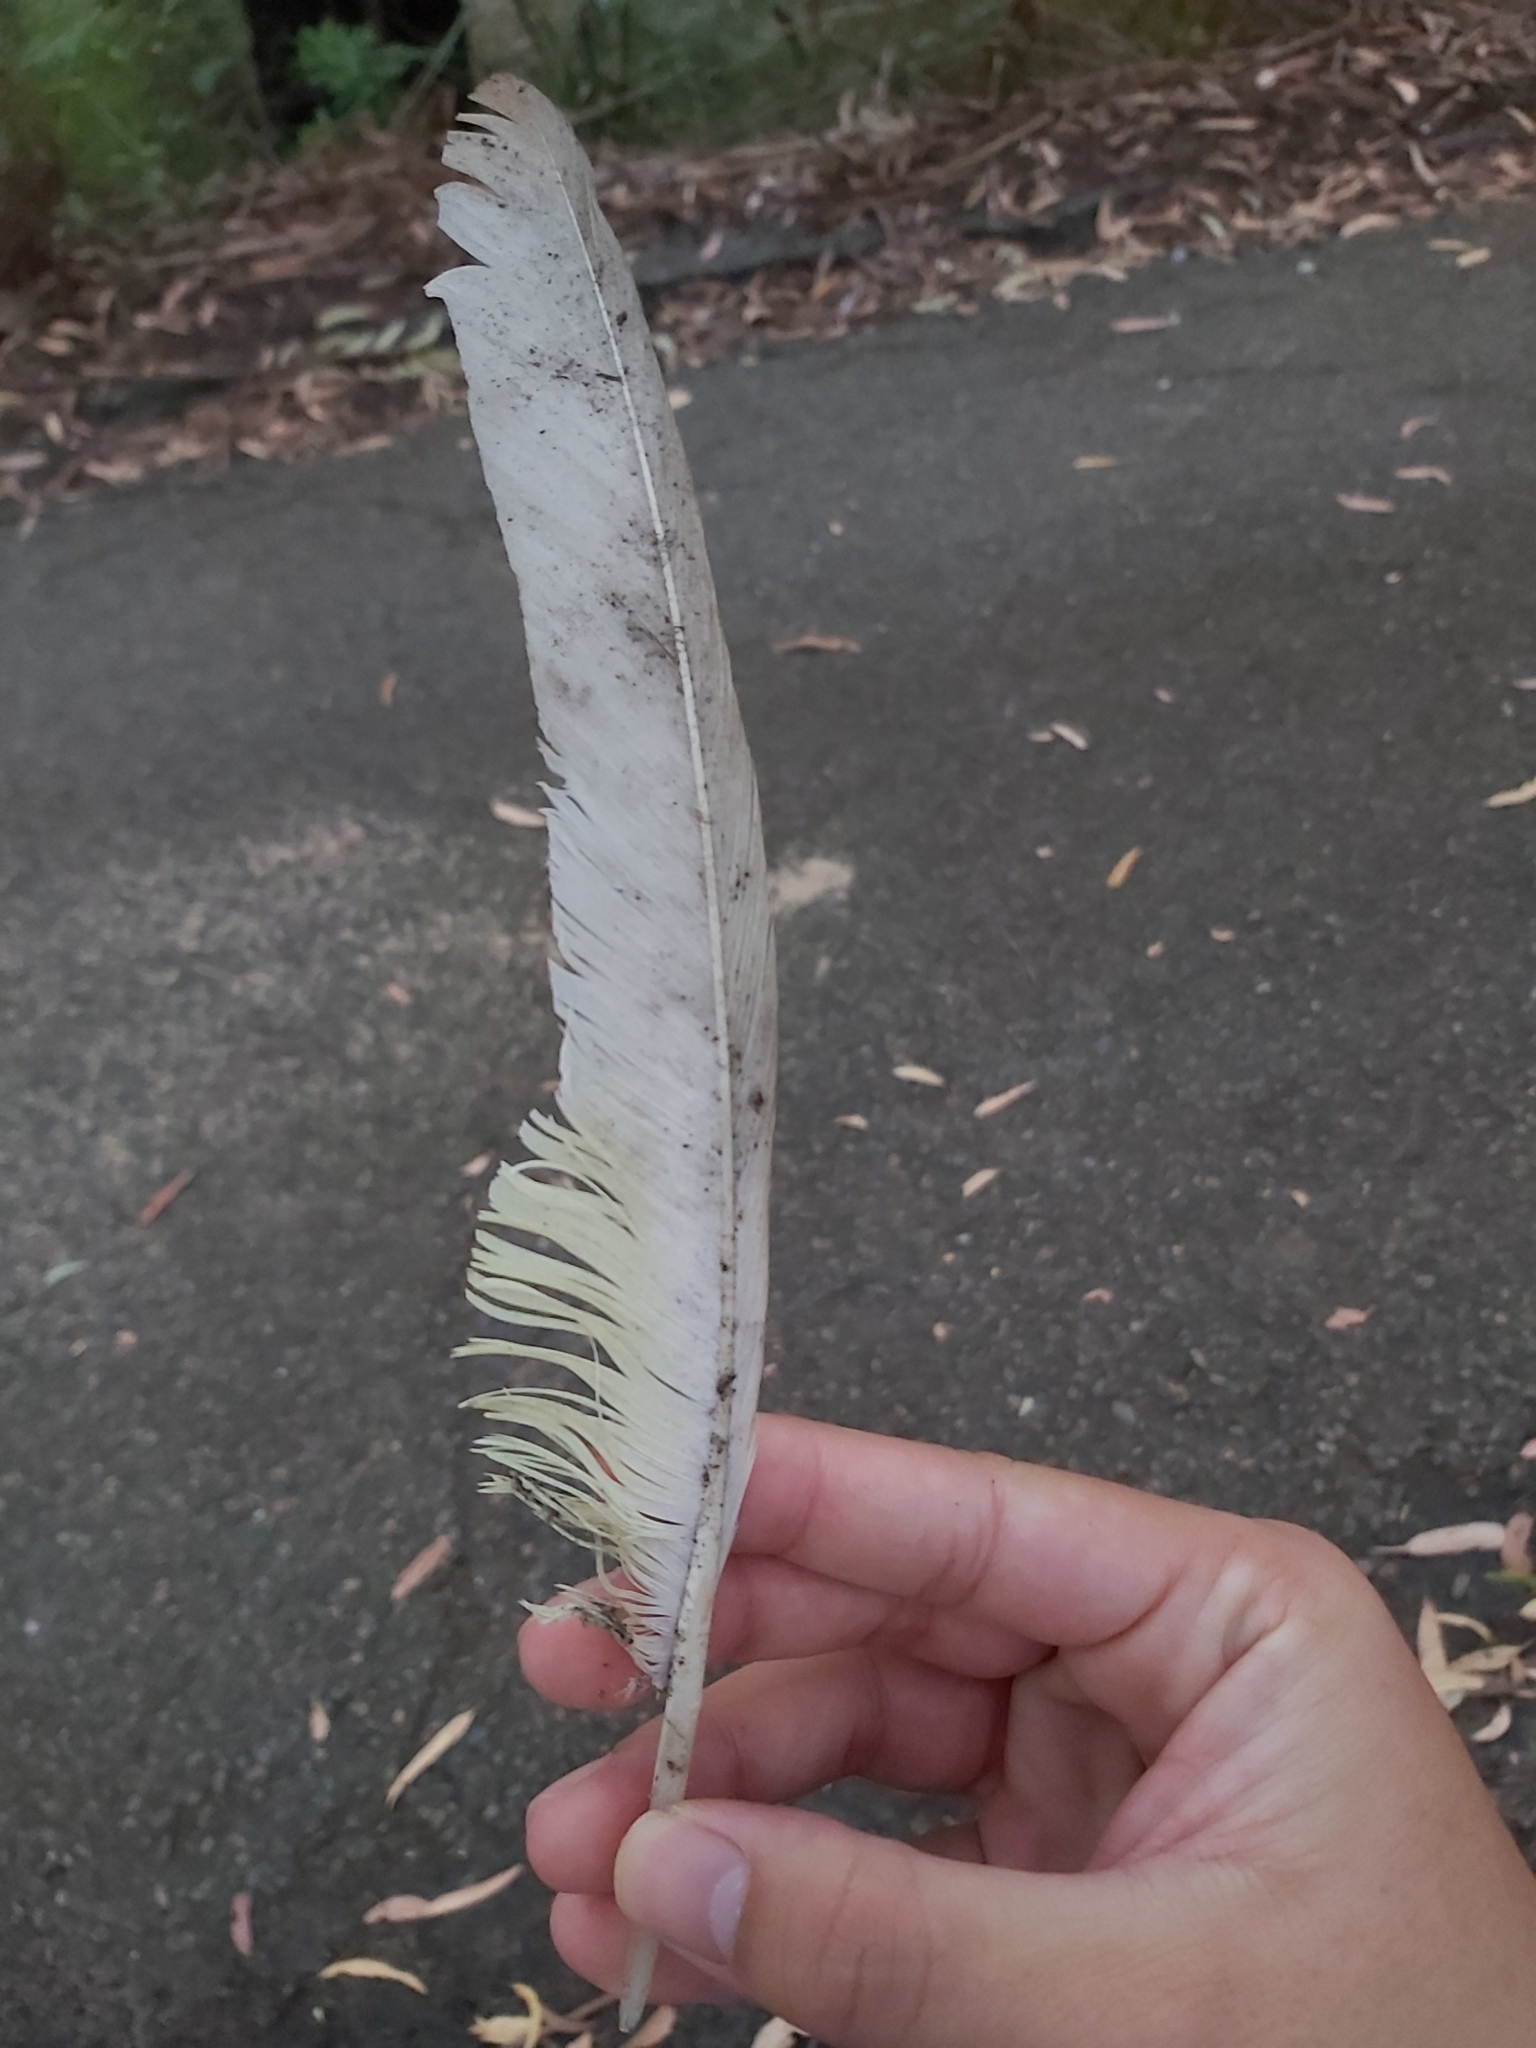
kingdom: Animalia
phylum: Chordata
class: Aves
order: Psittaciformes
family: Psittacidae
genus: Cacatua
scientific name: Cacatua galerita
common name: Sulphur-crested cockatoo
